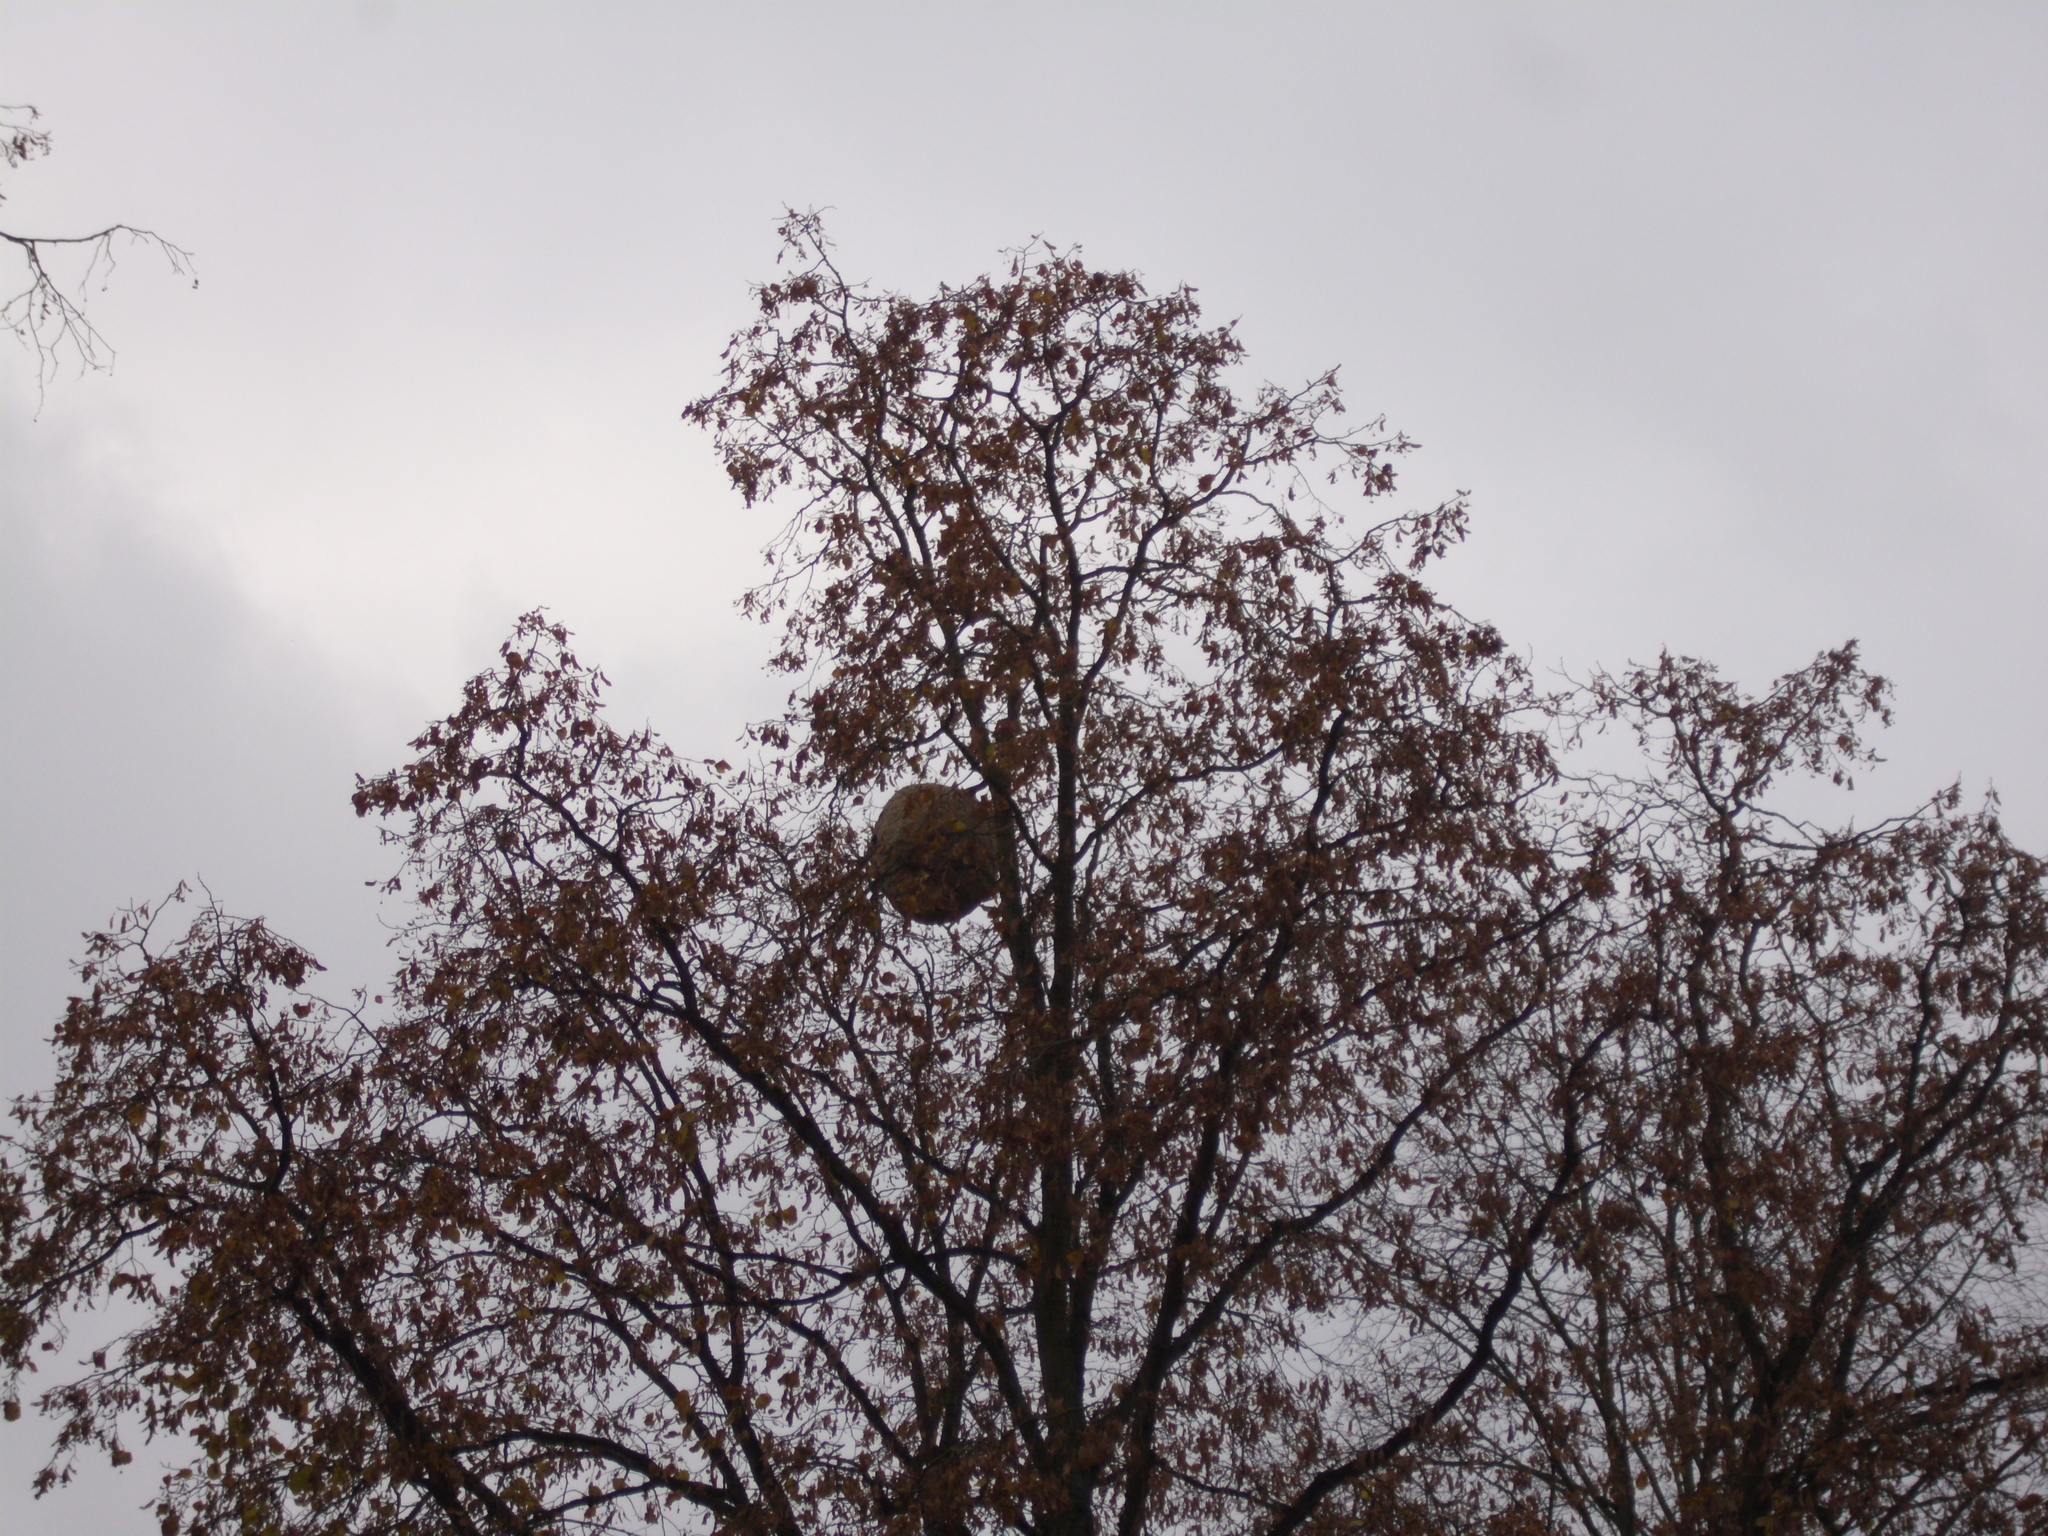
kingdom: Animalia
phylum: Arthropoda
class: Insecta
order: Hymenoptera
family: Vespidae
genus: Vespa
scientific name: Vespa velutina
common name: Asian hornet
